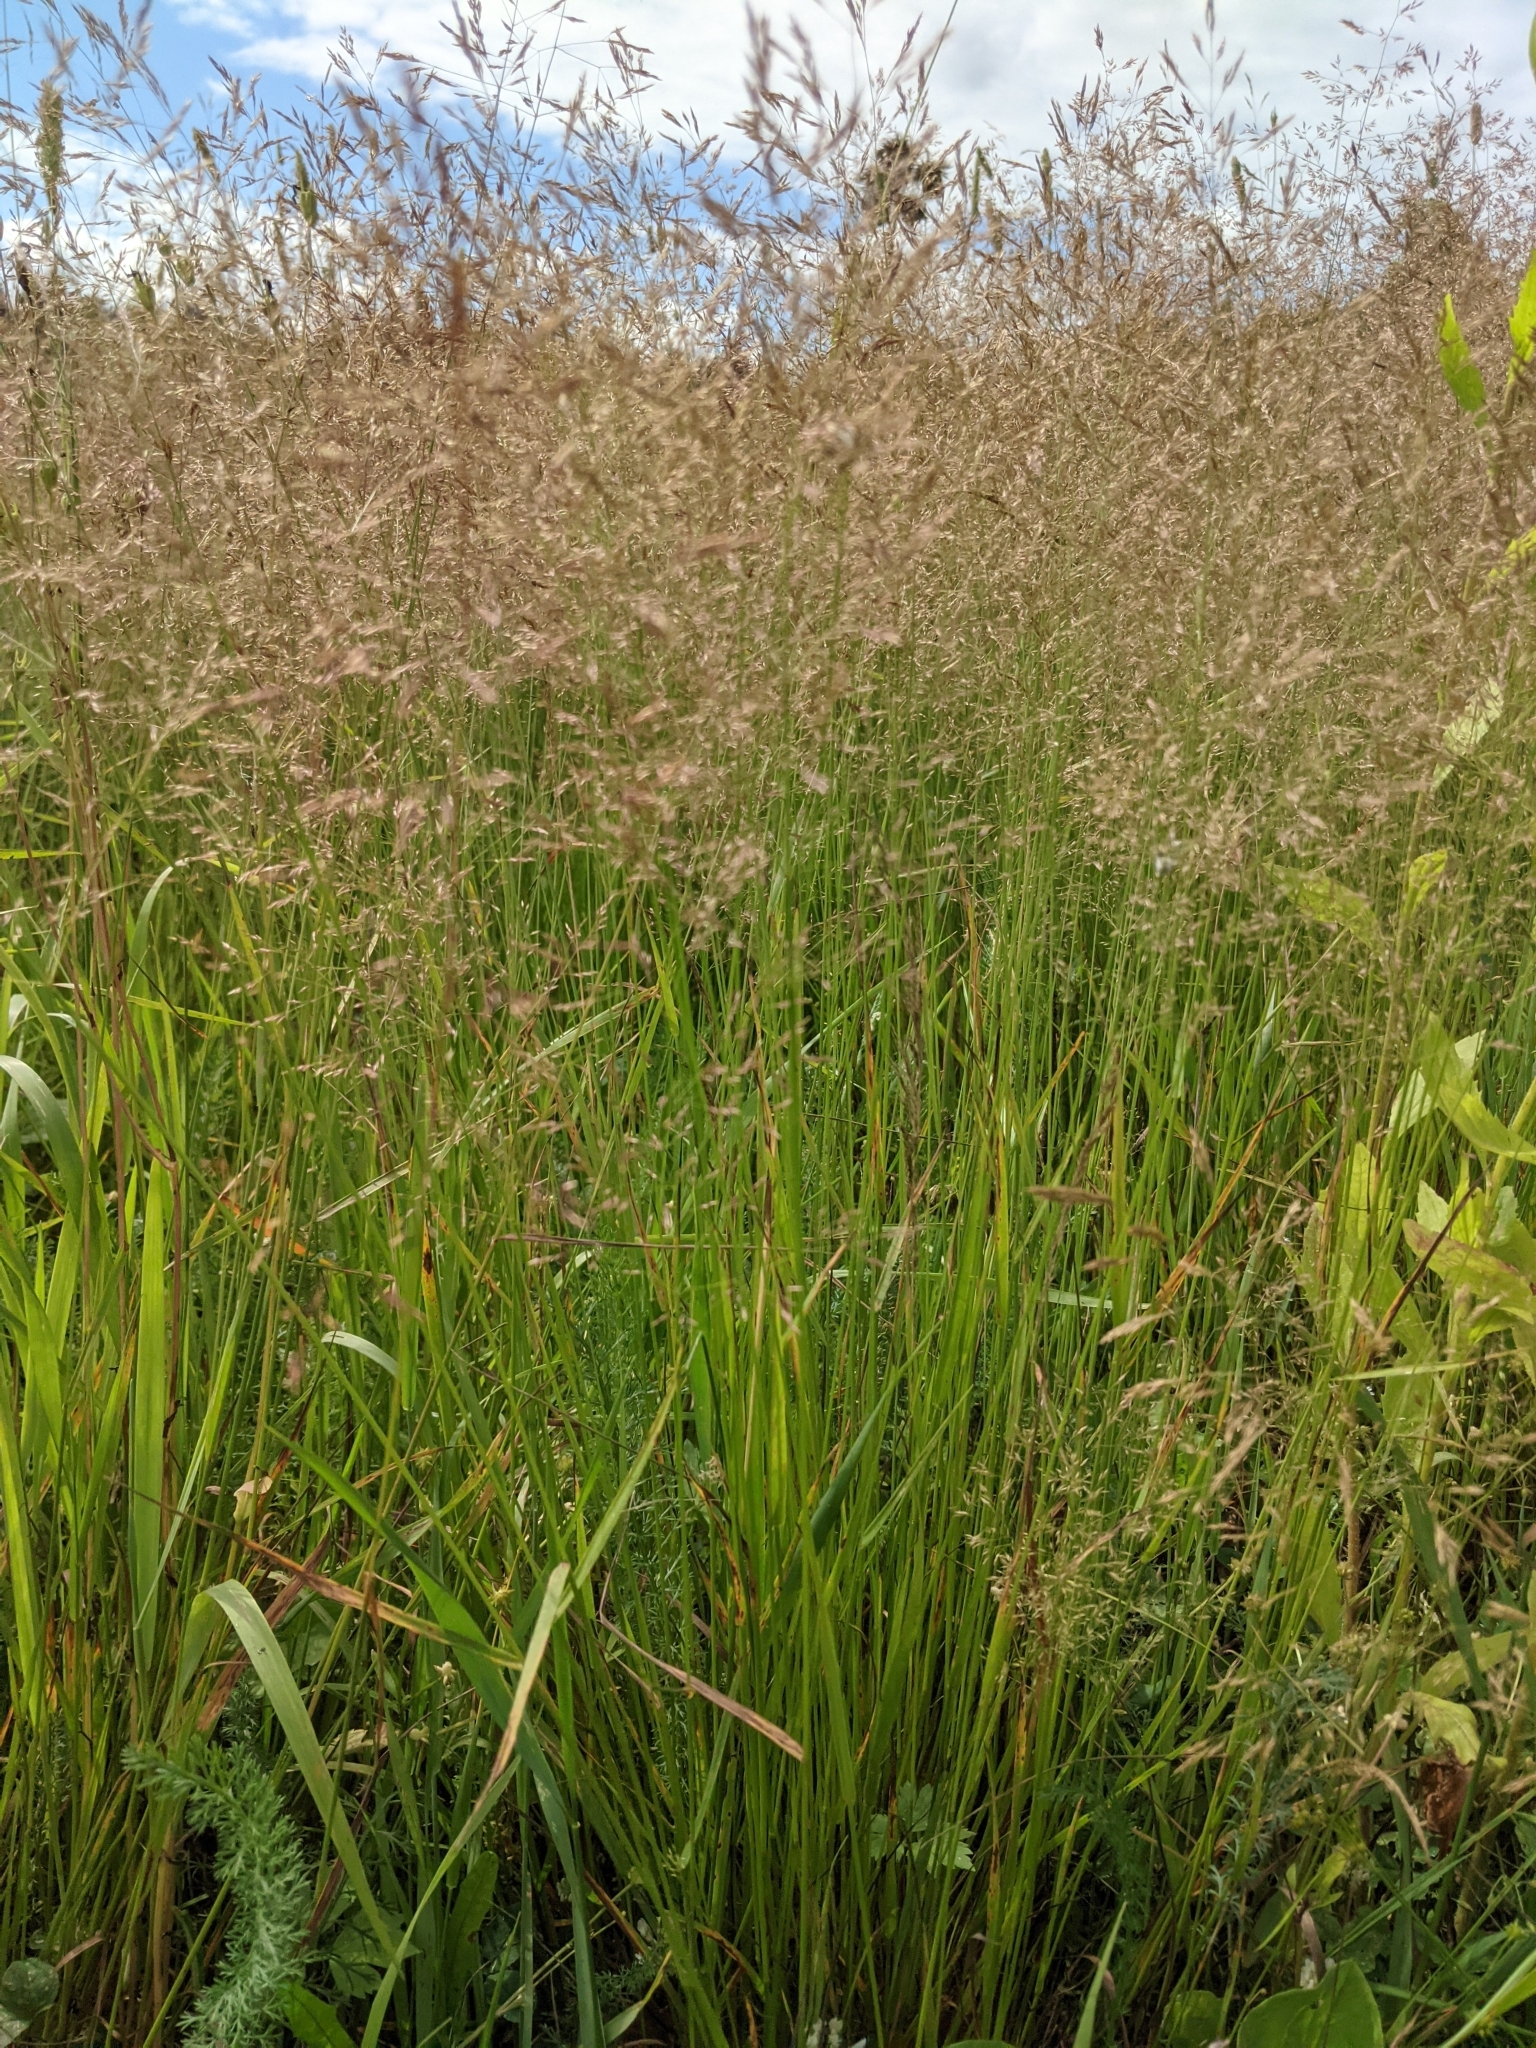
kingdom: Plantae
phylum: Tracheophyta
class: Liliopsida
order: Poales
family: Poaceae
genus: Agrostis
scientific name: Agrostis gigantea
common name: Black bent
